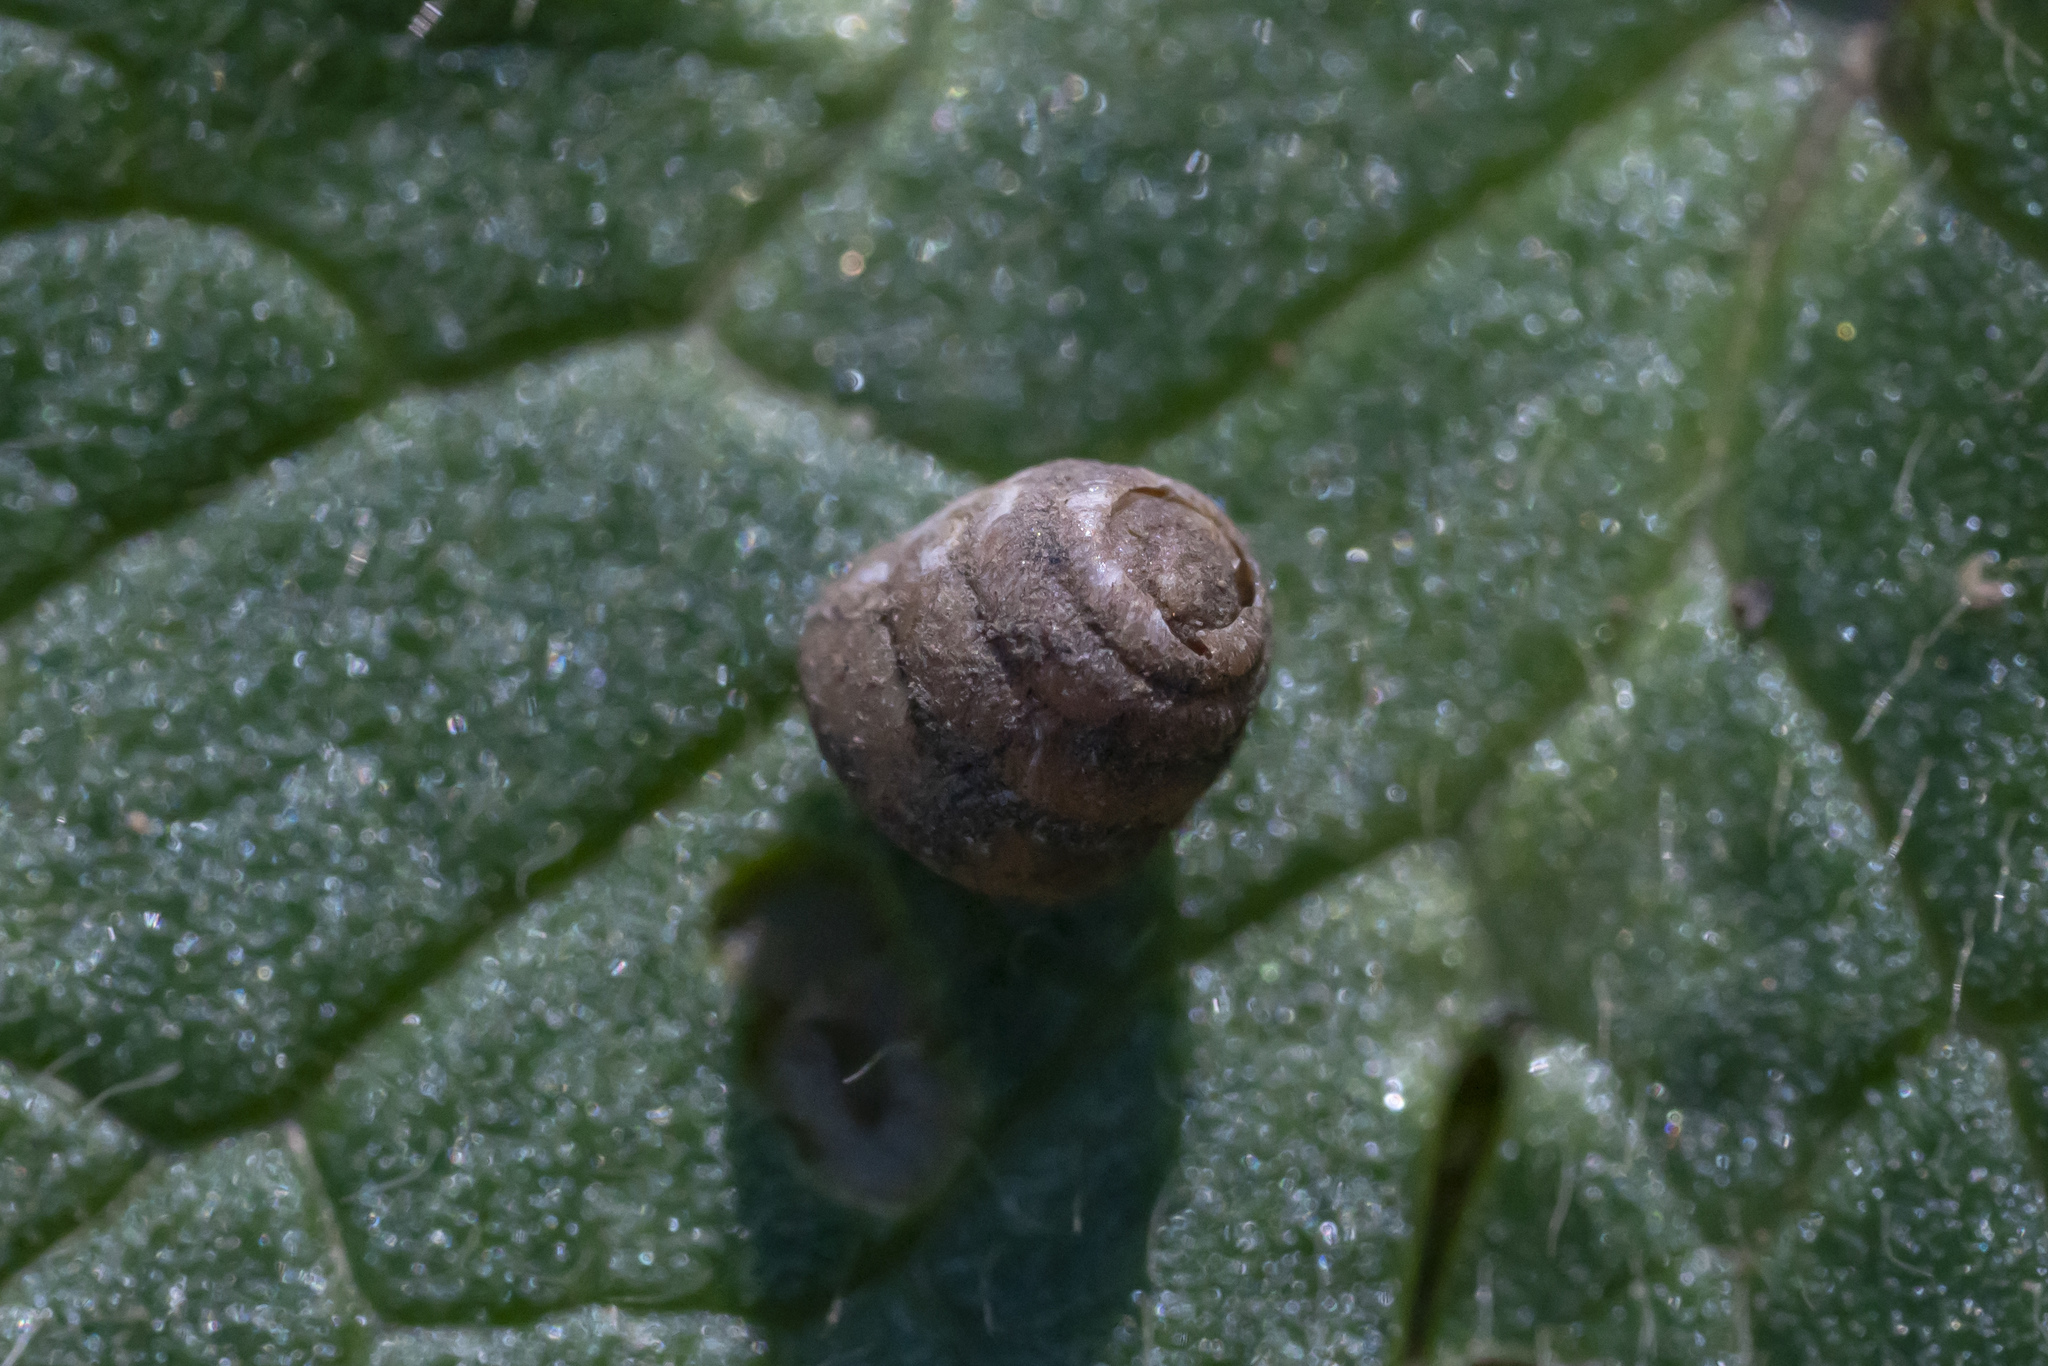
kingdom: Animalia
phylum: Mollusca
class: Gastropoda
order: Stylommatophora
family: Orculidae
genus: Orculella
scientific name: Orculella critica
